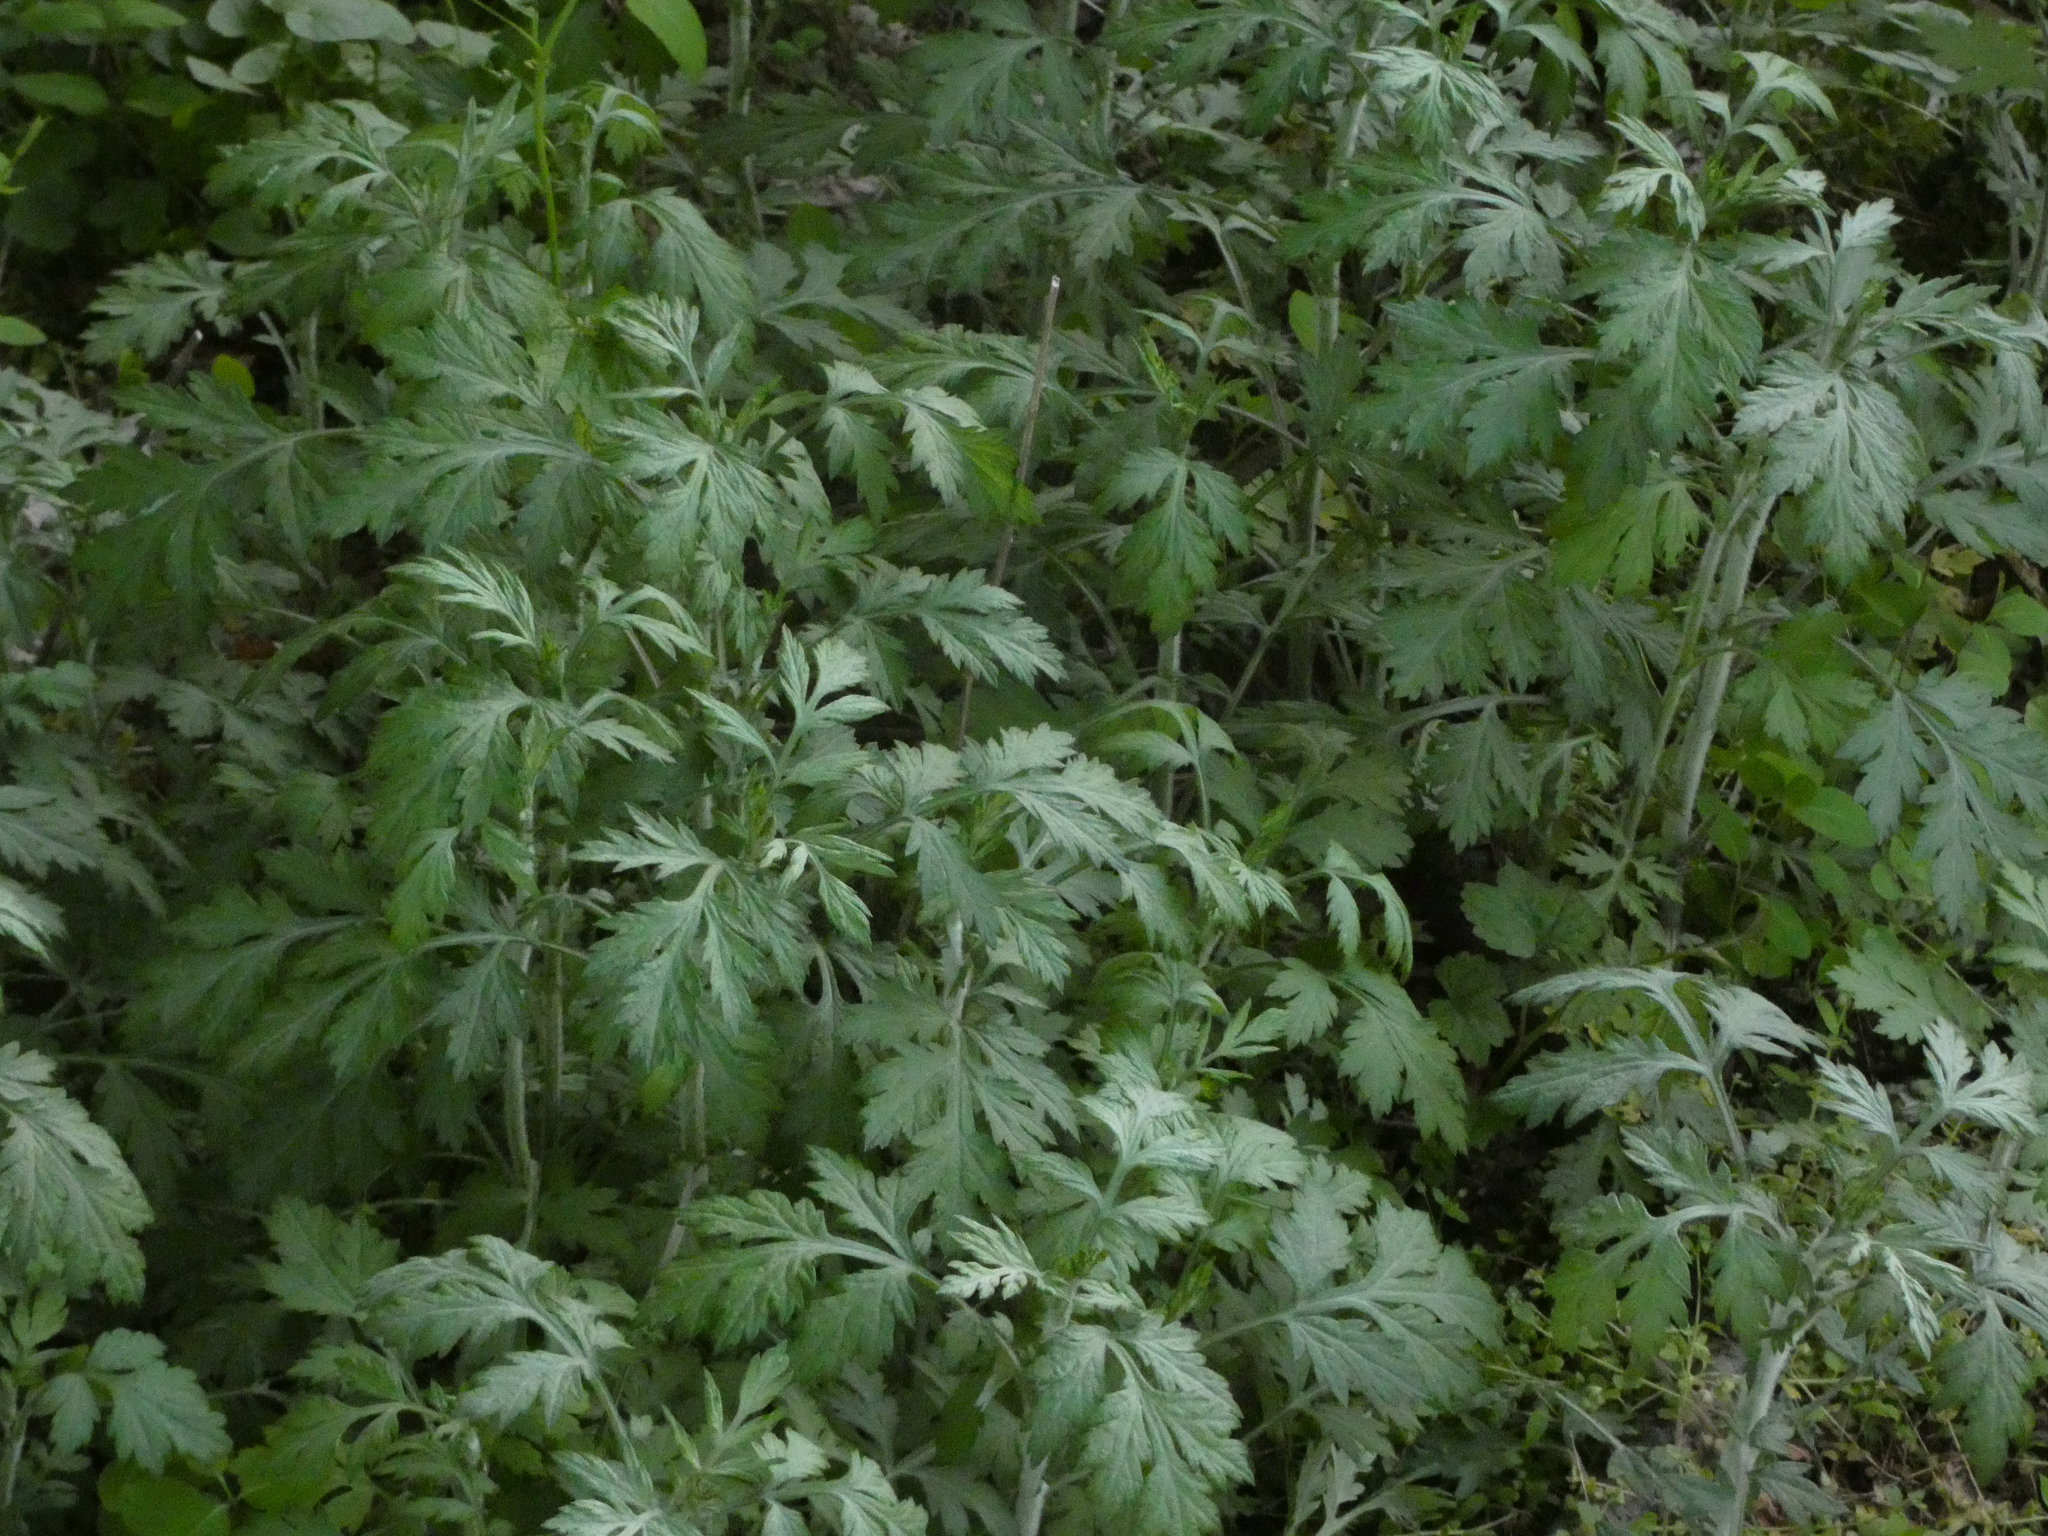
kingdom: Plantae
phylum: Tracheophyta
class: Magnoliopsida
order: Asterales
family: Asteraceae
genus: Artemisia
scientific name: Artemisia vulgaris
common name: Mugwort
